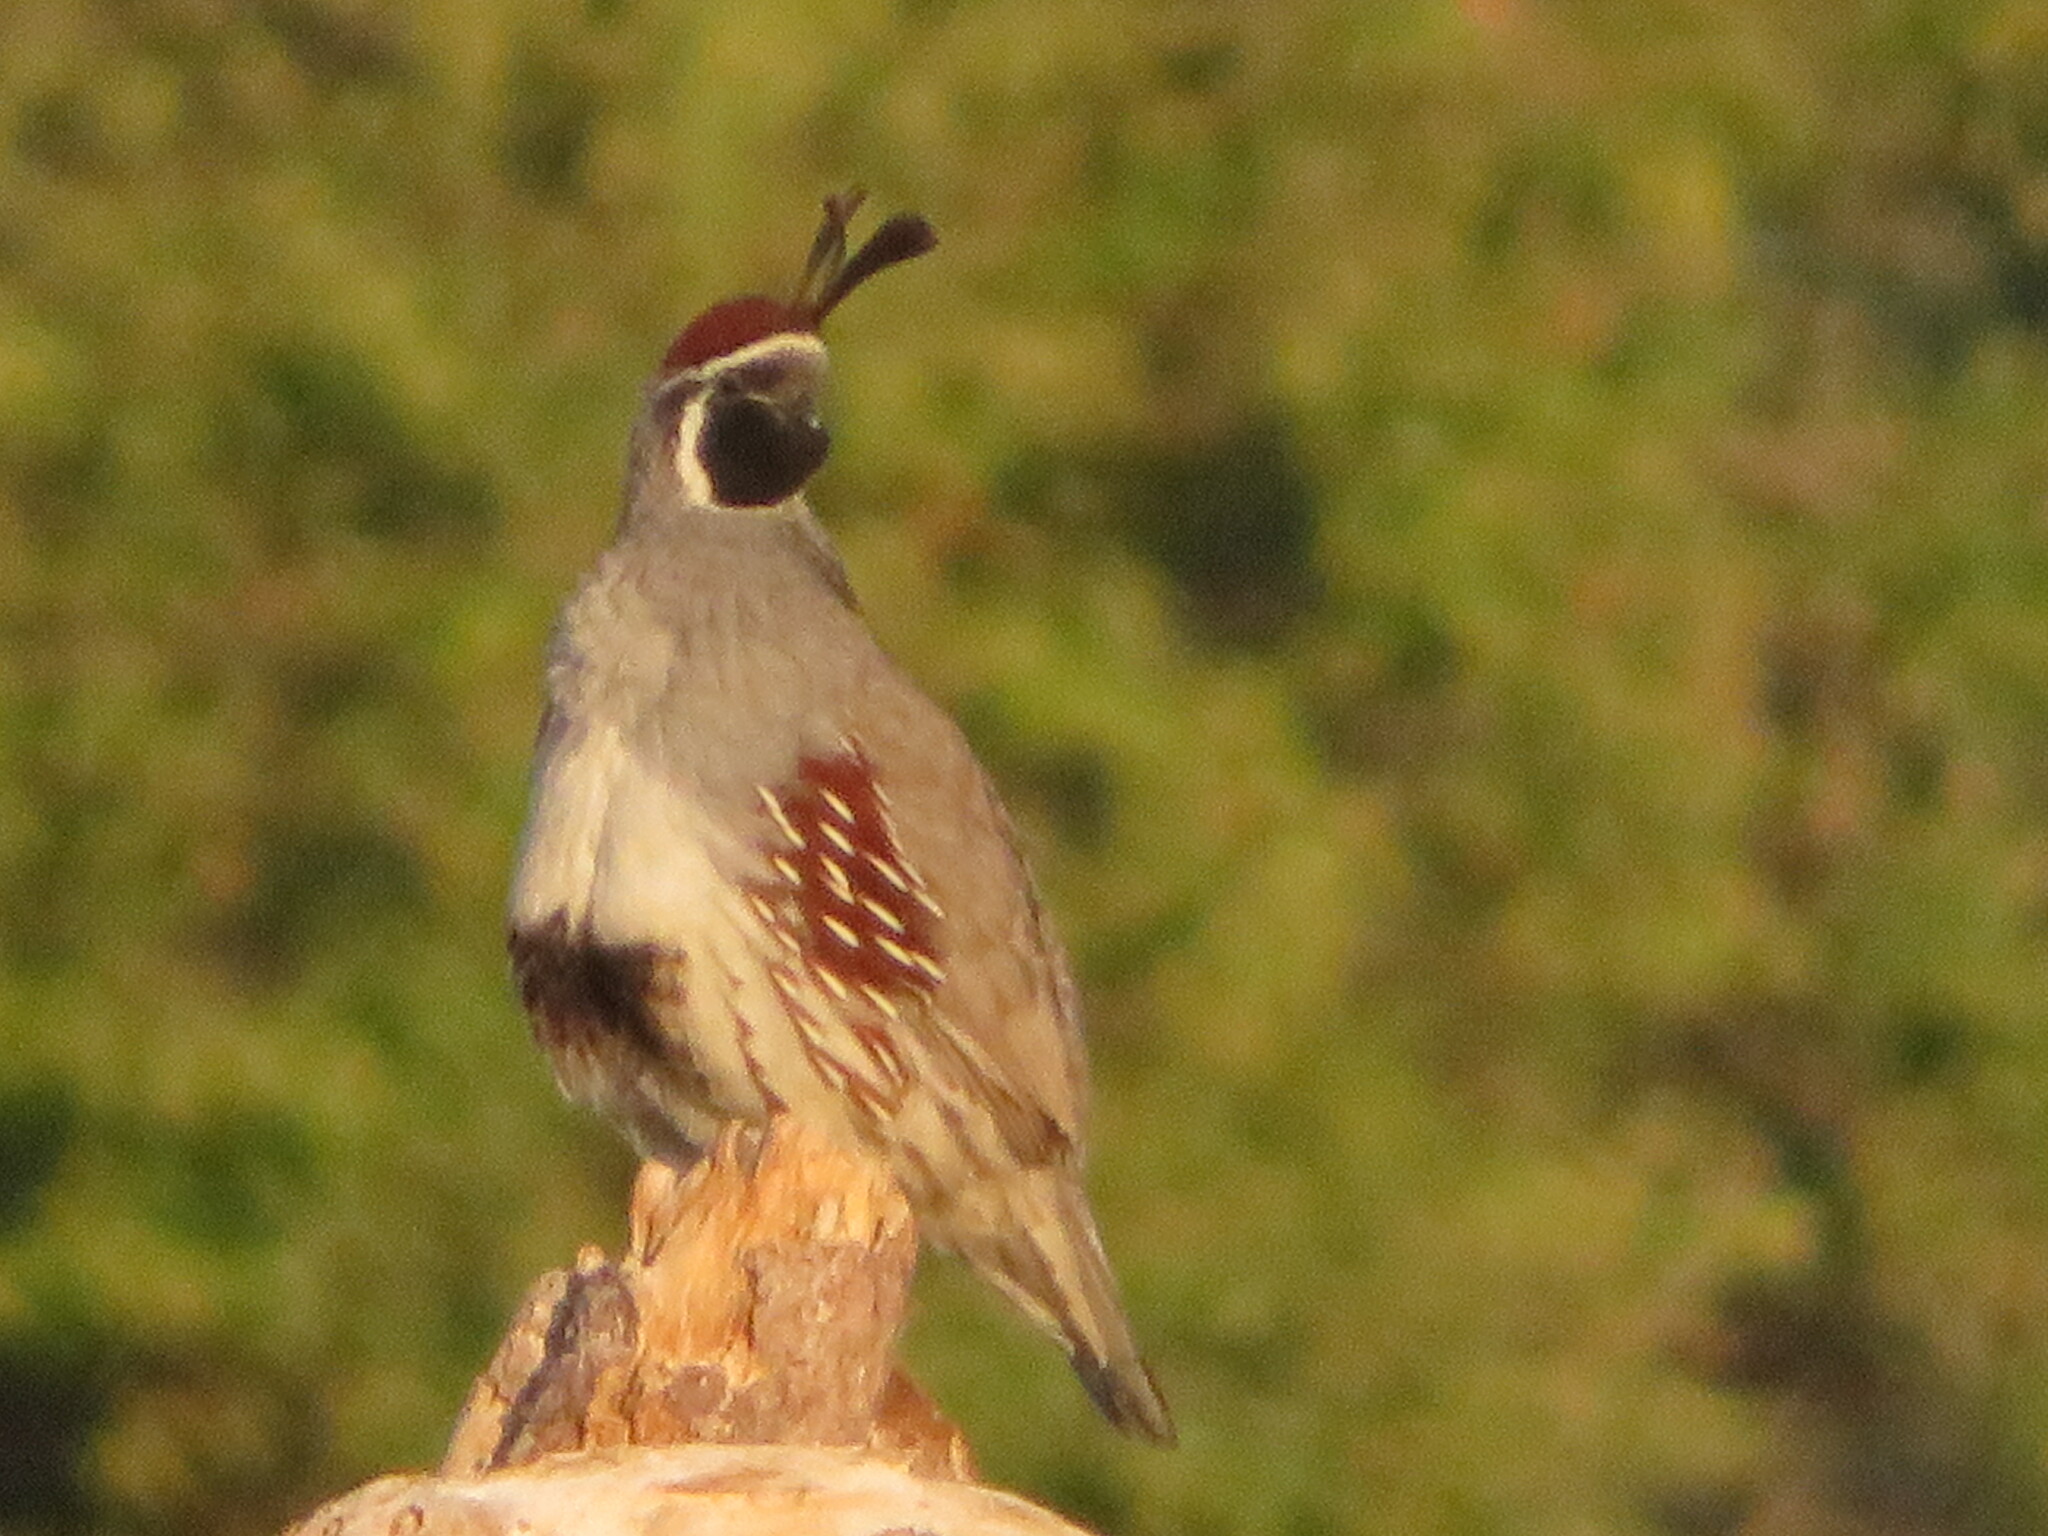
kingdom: Animalia
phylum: Chordata
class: Aves
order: Galliformes
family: Odontophoridae
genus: Callipepla
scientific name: Callipepla gambelii
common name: Gambel's quail
